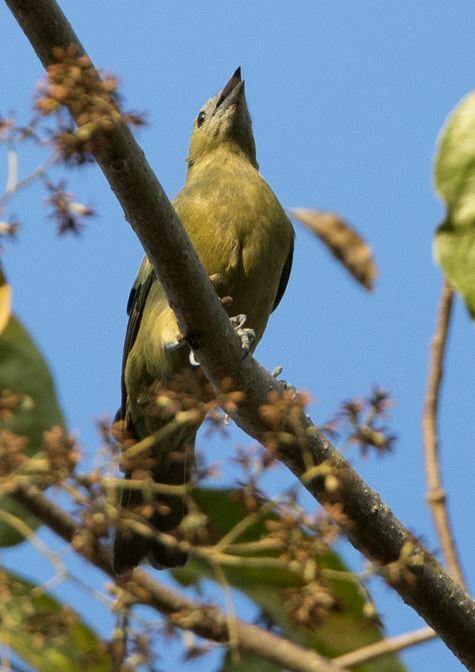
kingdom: Animalia
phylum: Chordata
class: Aves
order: Passeriformes
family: Thraupidae
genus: Thraupis
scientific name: Thraupis palmarum
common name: Palm tanager
